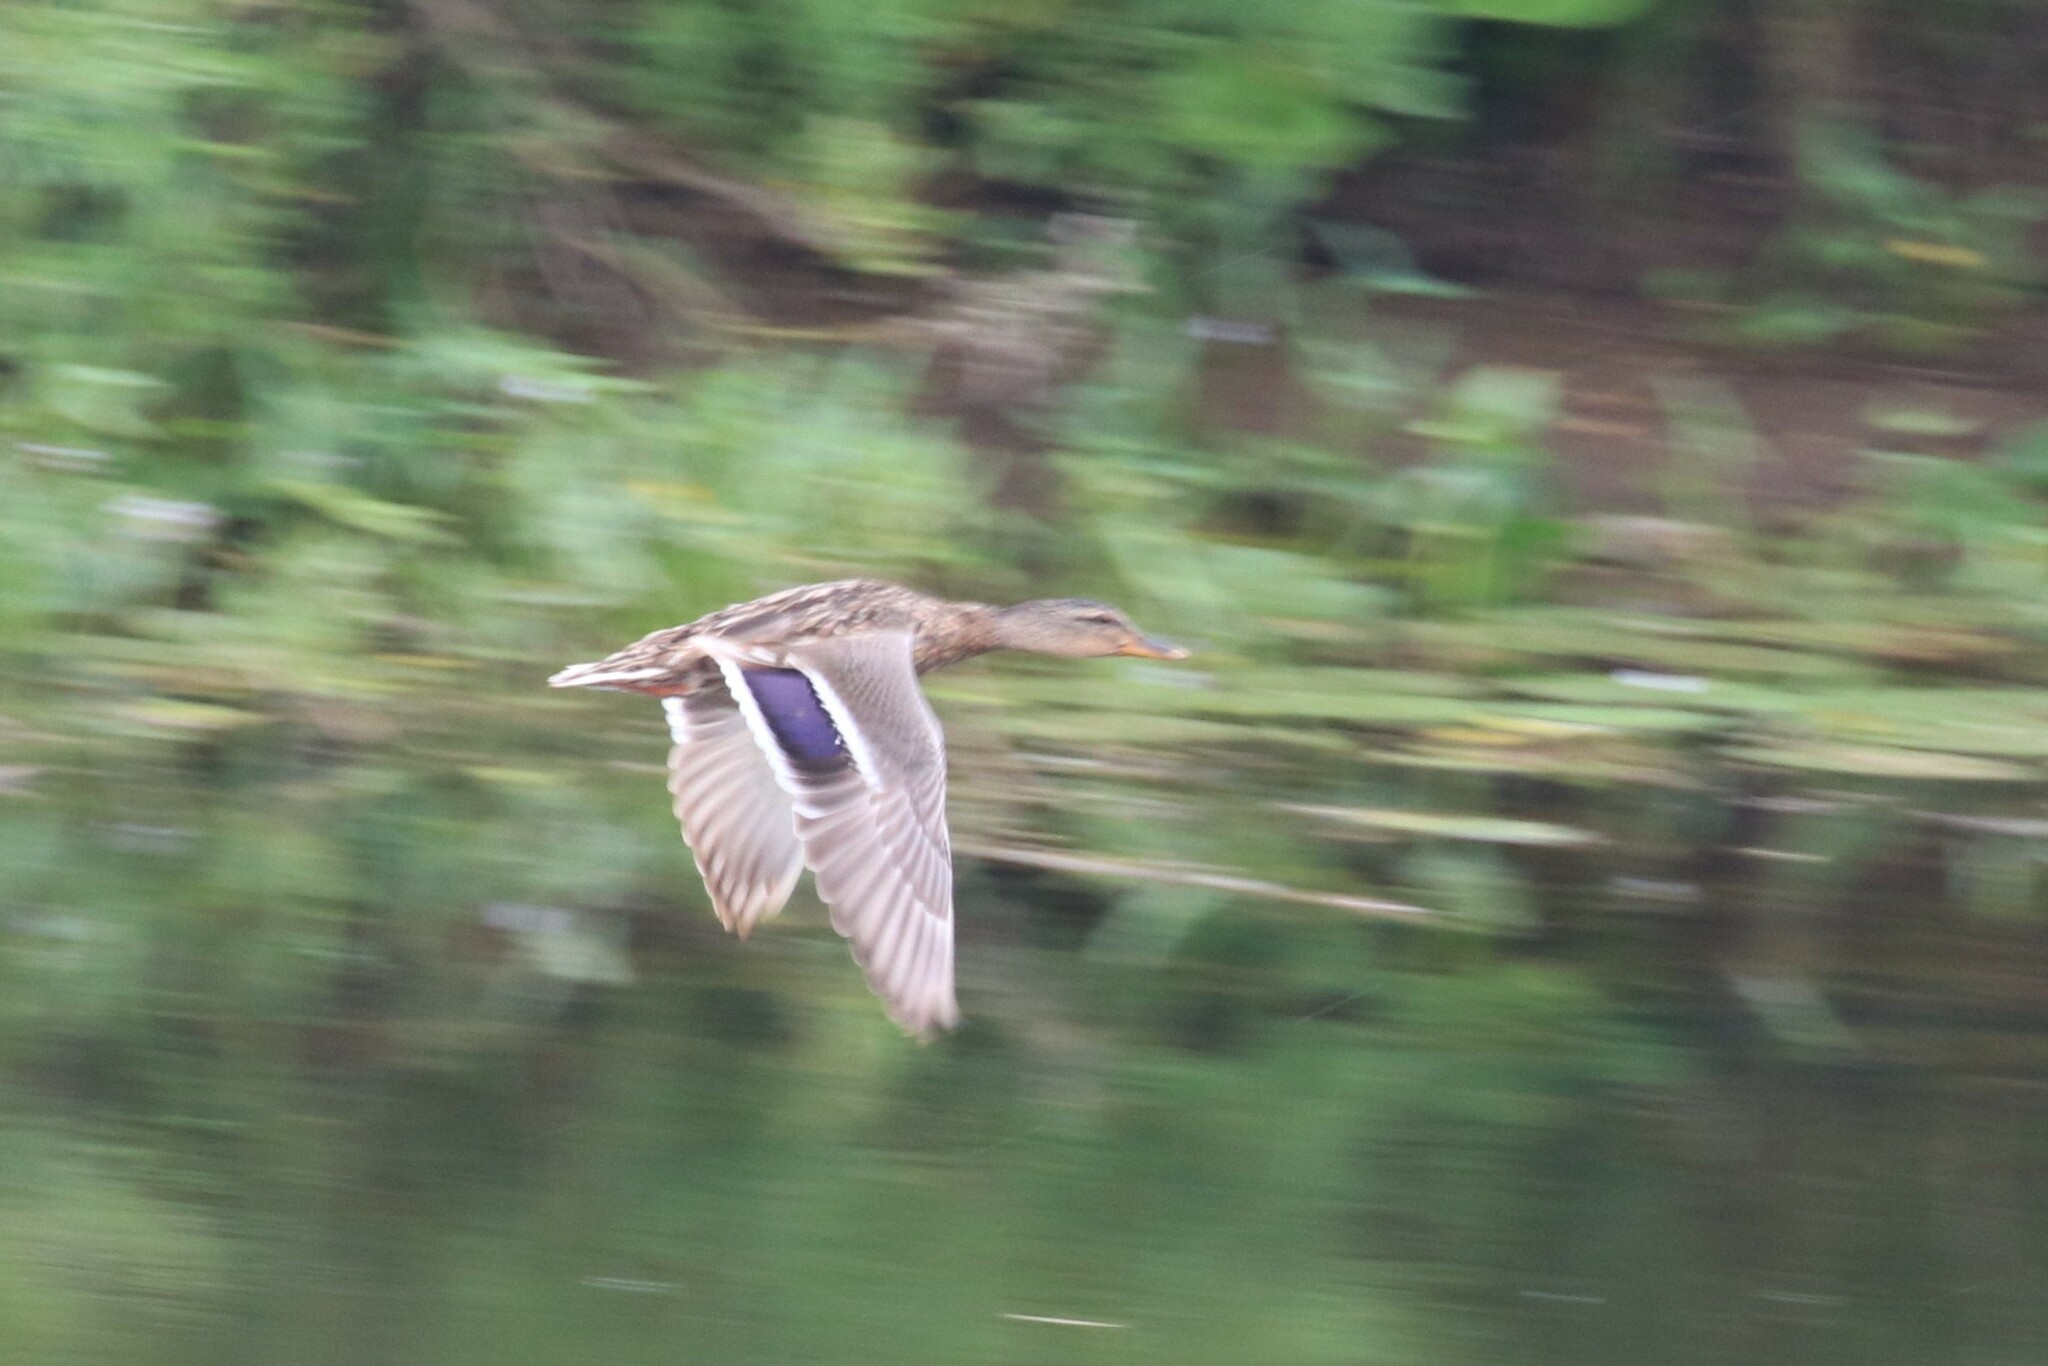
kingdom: Animalia
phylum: Chordata
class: Aves
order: Anseriformes
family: Anatidae
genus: Anas
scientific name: Anas platyrhynchos
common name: Mallard
